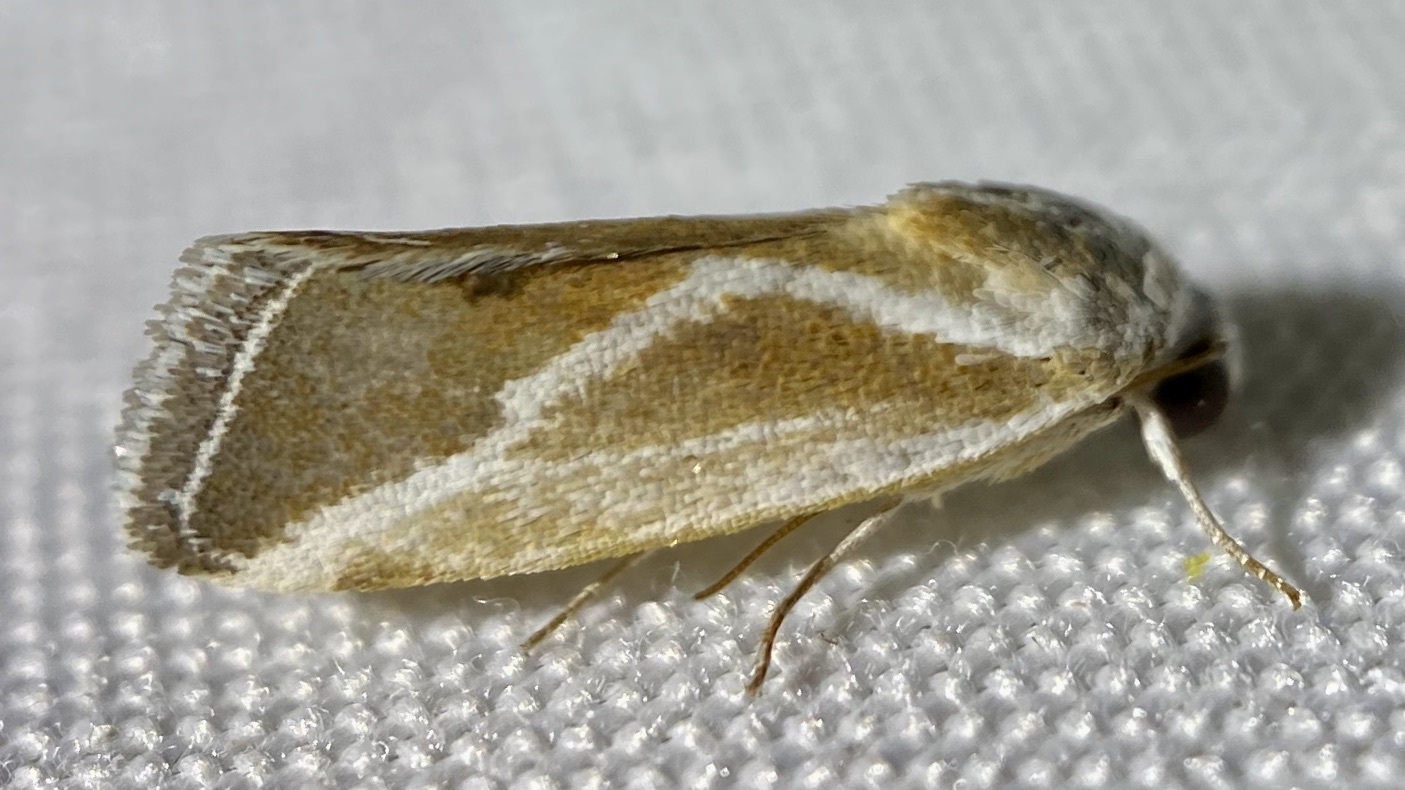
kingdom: Animalia
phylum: Arthropoda
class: Insecta
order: Lepidoptera
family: Noctuidae
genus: Acontia
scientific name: Acontia alata
